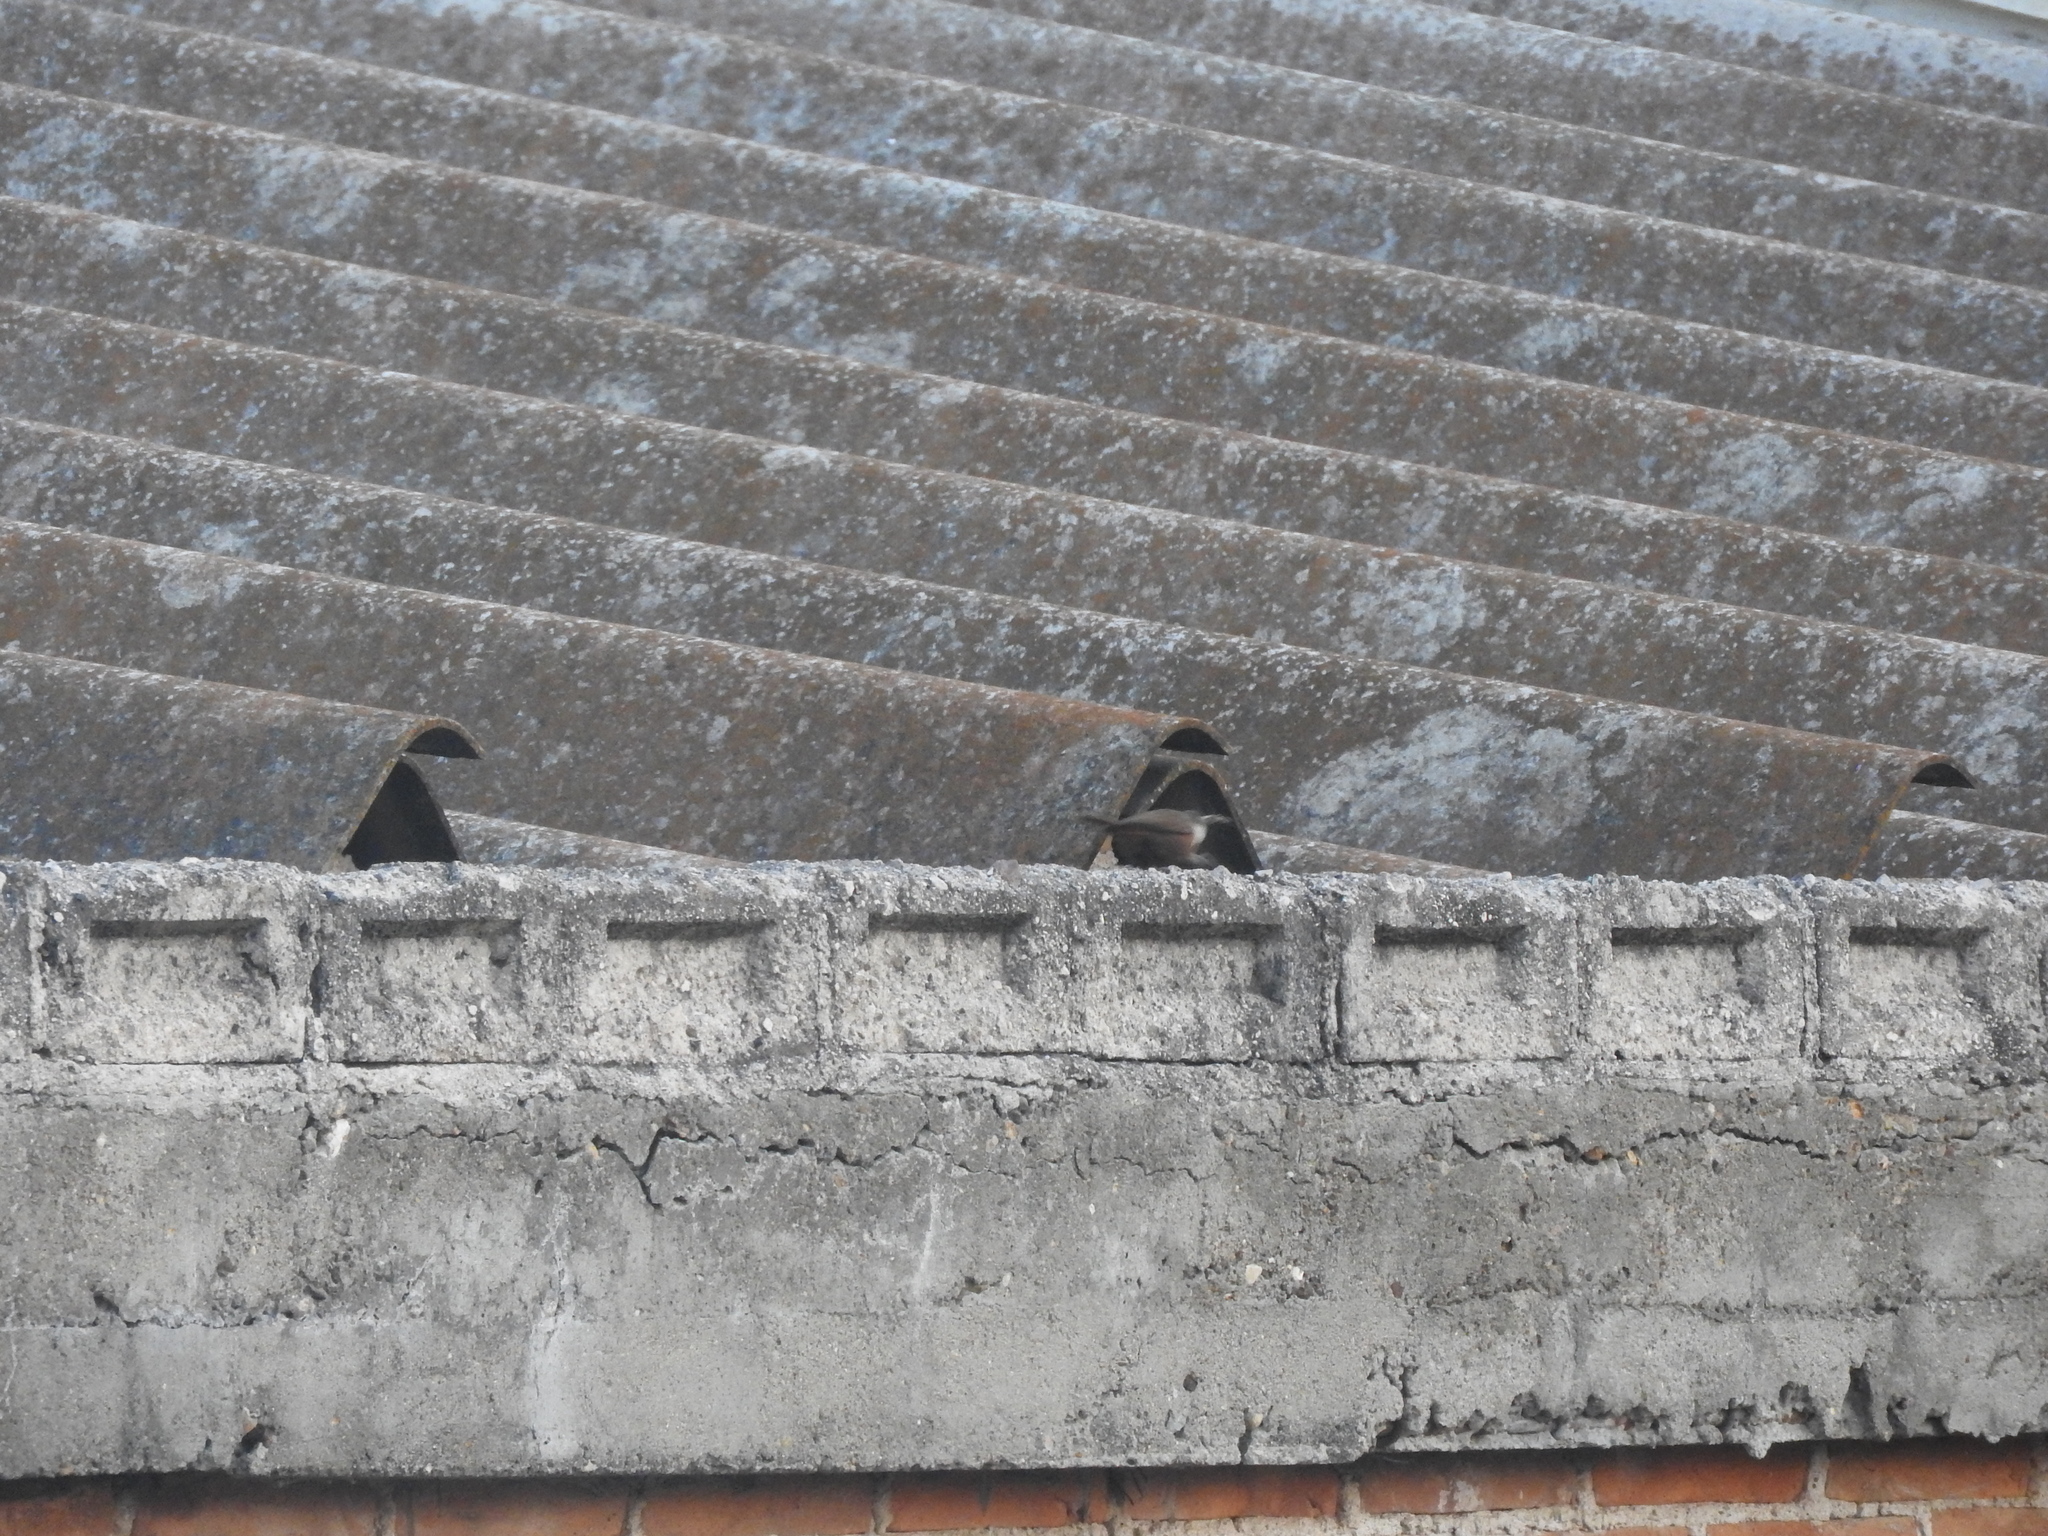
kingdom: Animalia
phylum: Chordata
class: Aves
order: Passeriformes
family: Troglodytidae
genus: Catherpes
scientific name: Catherpes mexicanus
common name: Canyon wren
